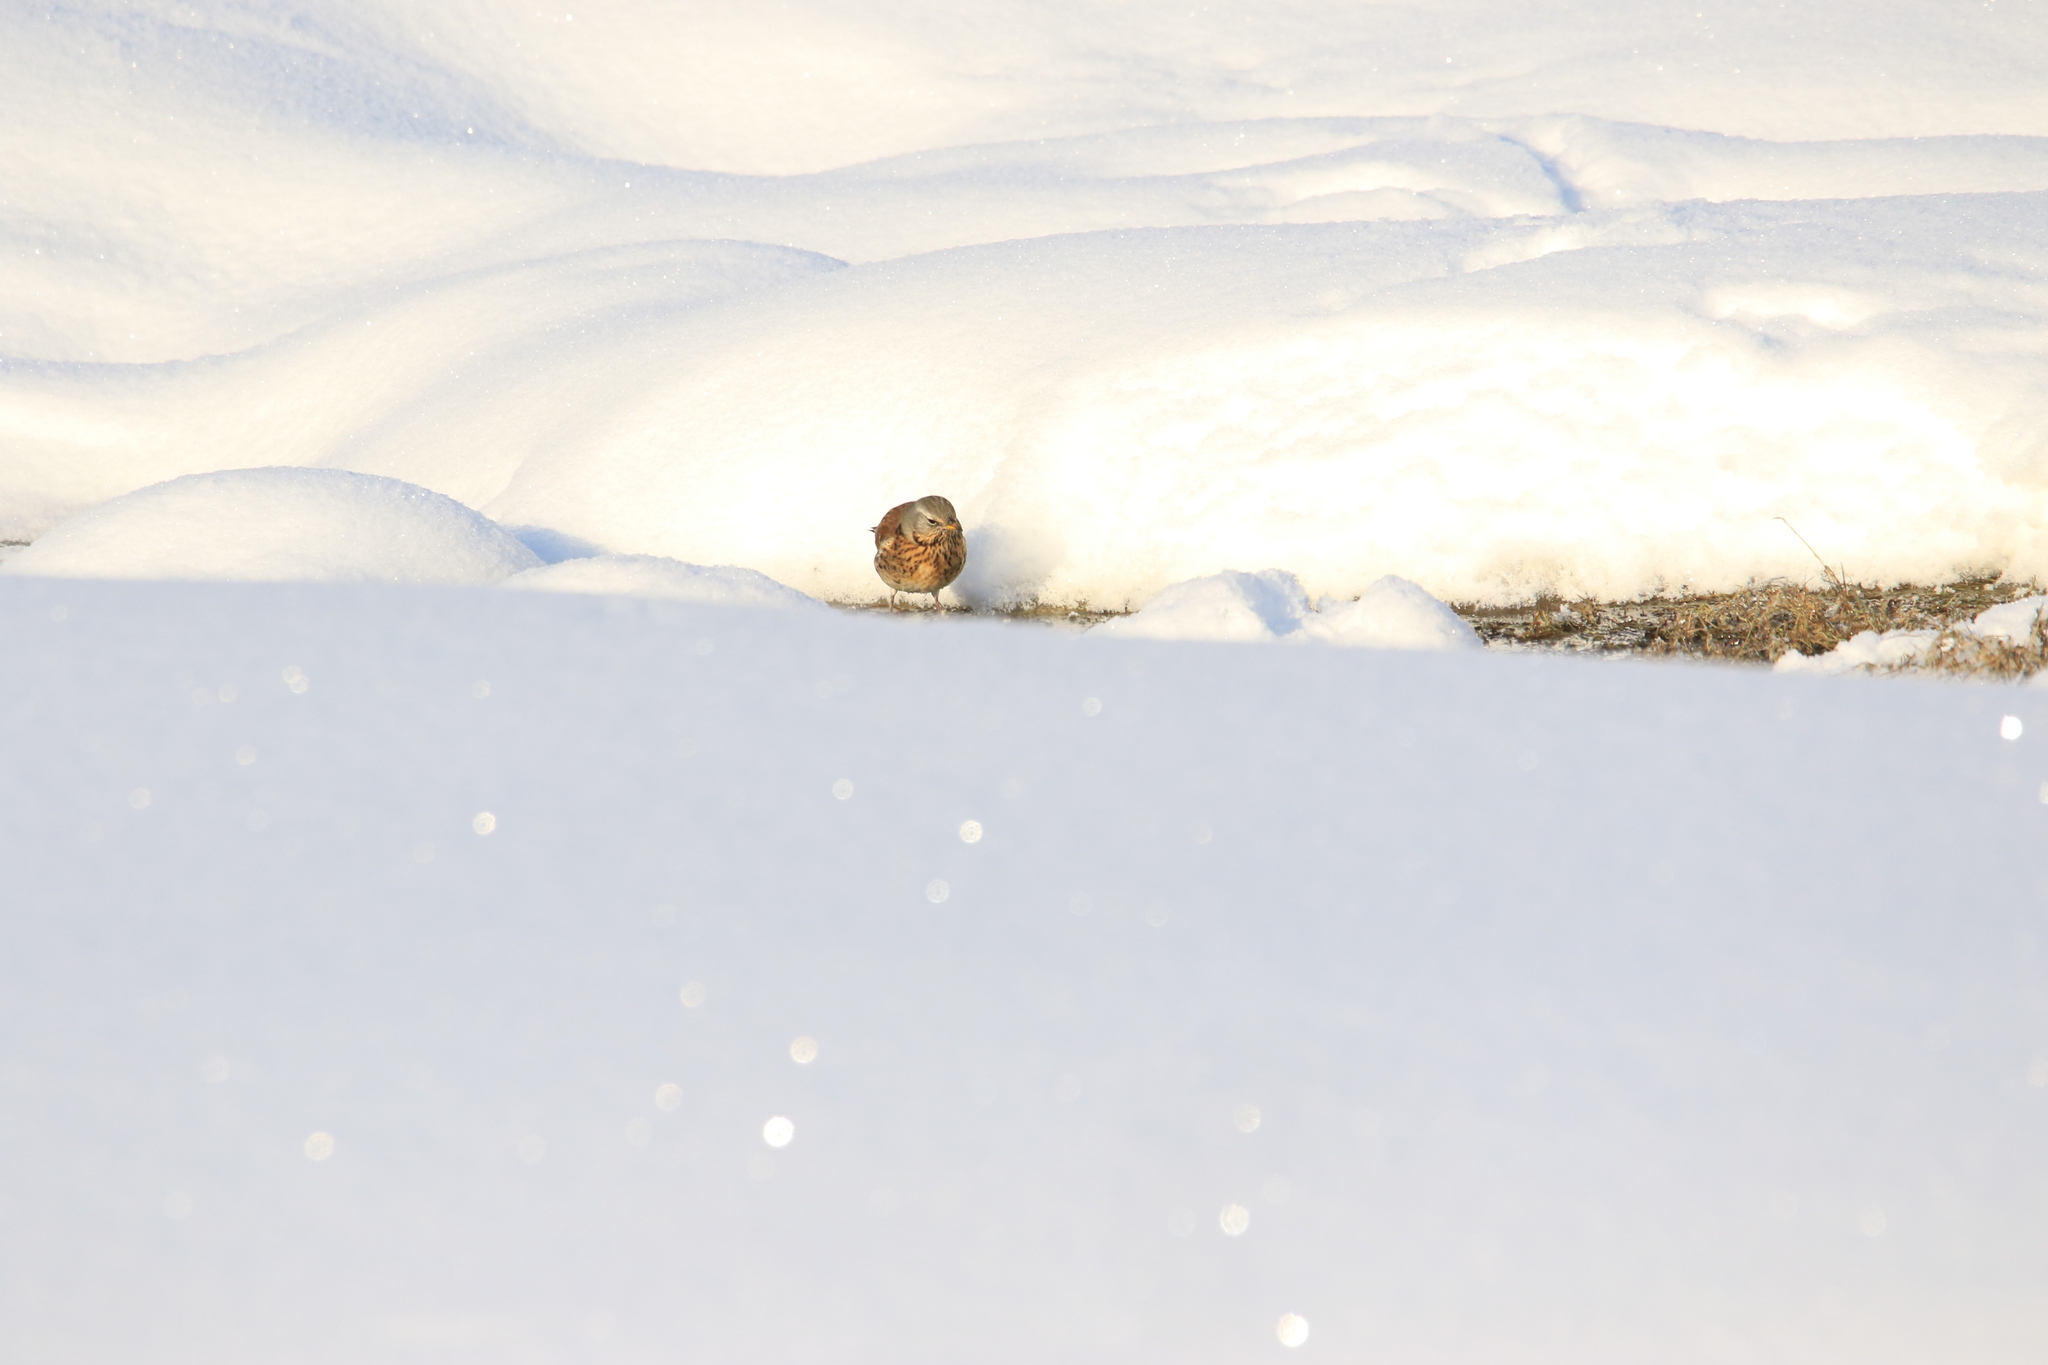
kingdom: Animalia
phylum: Chordata
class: Aves
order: Passeriformes
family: Turdidae
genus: Turdus
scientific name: Turdus pilaris
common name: Fieldfare
